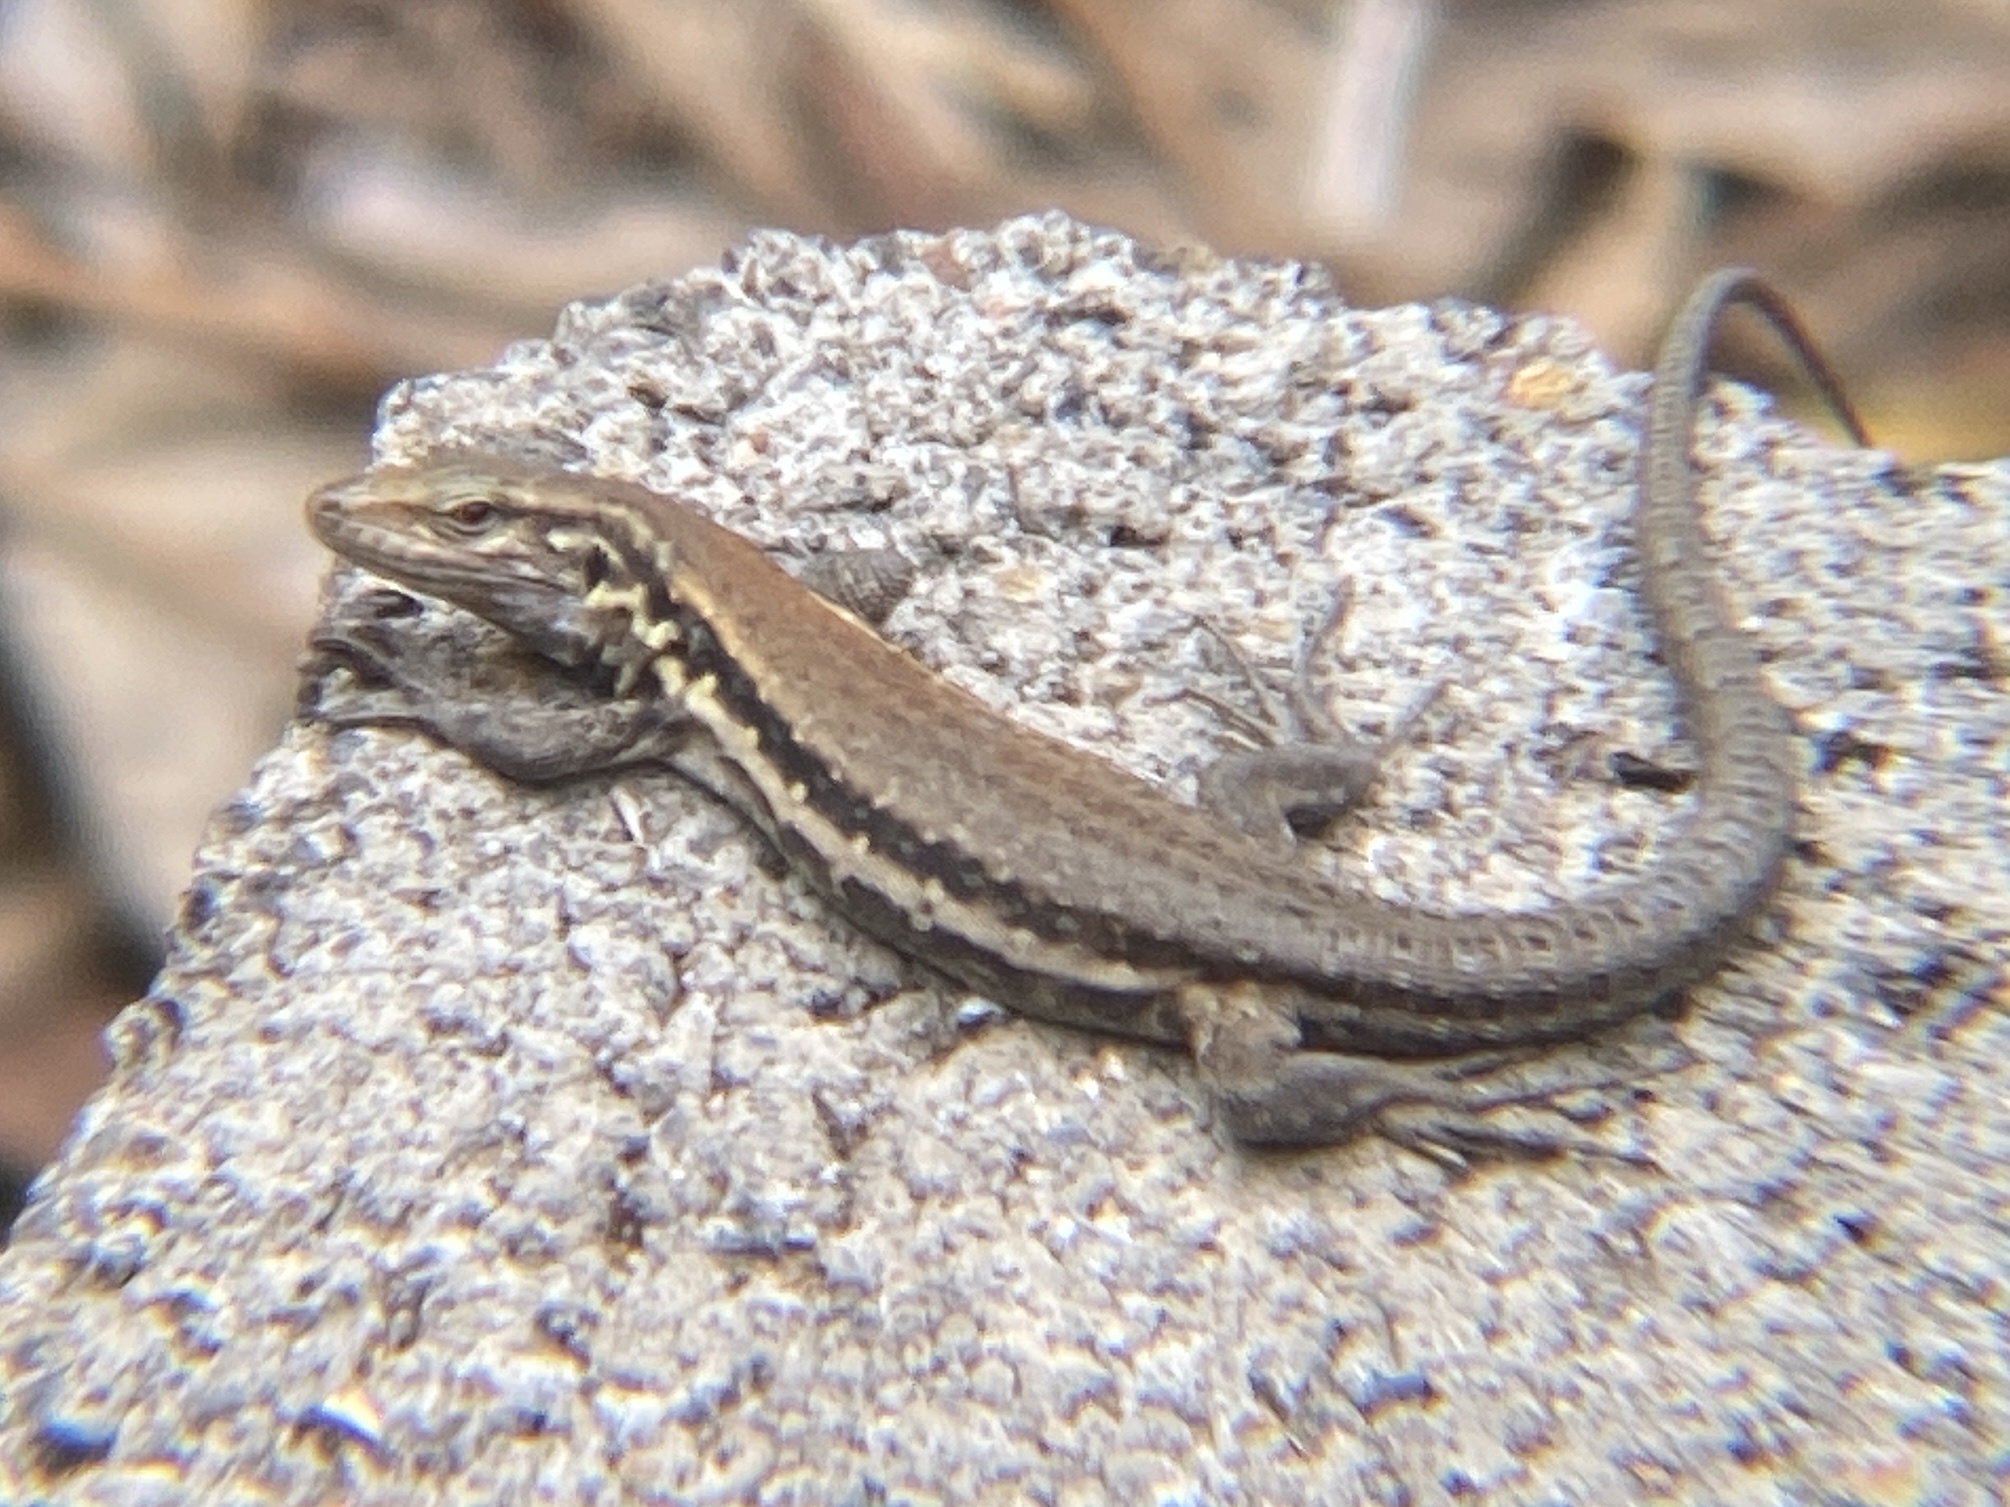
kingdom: Animalia
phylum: Chordata
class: Squamata
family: Lacertidae
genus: Gallotia
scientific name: Gallotia galloti
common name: Gallot's lizard
